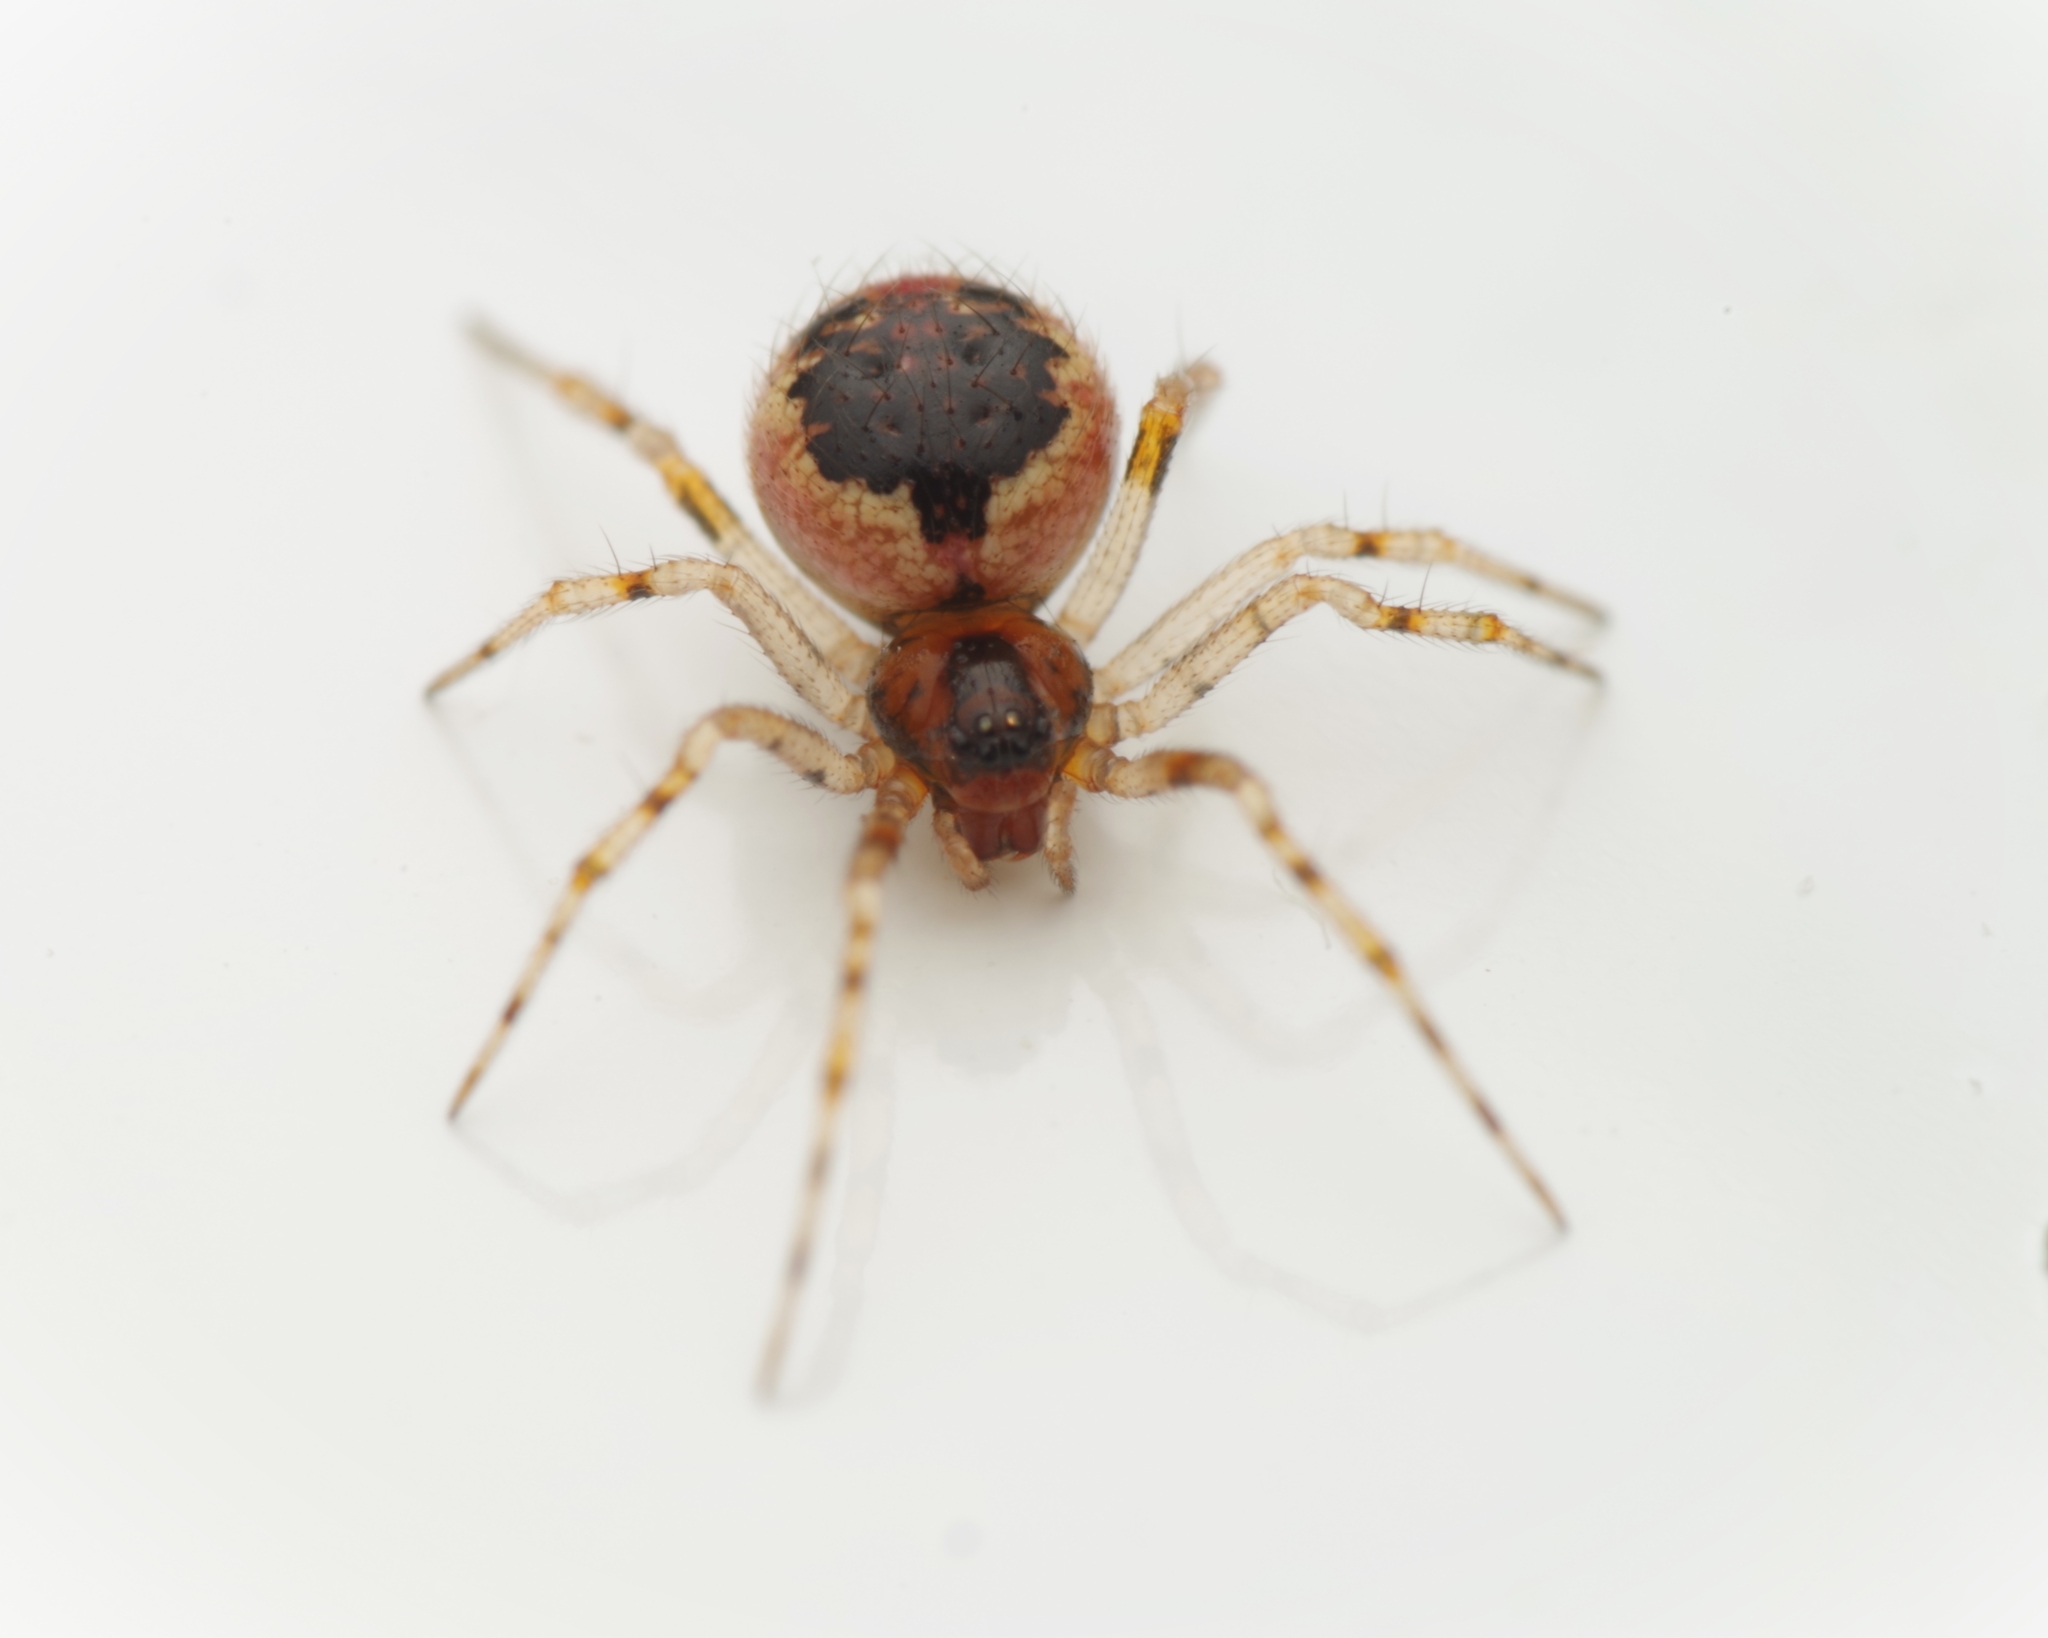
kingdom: Animalia
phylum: Arthropoda
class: Arachnida
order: Araneae
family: Theridiidae
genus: Sardinidion
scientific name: Sardinidion blackwalli
